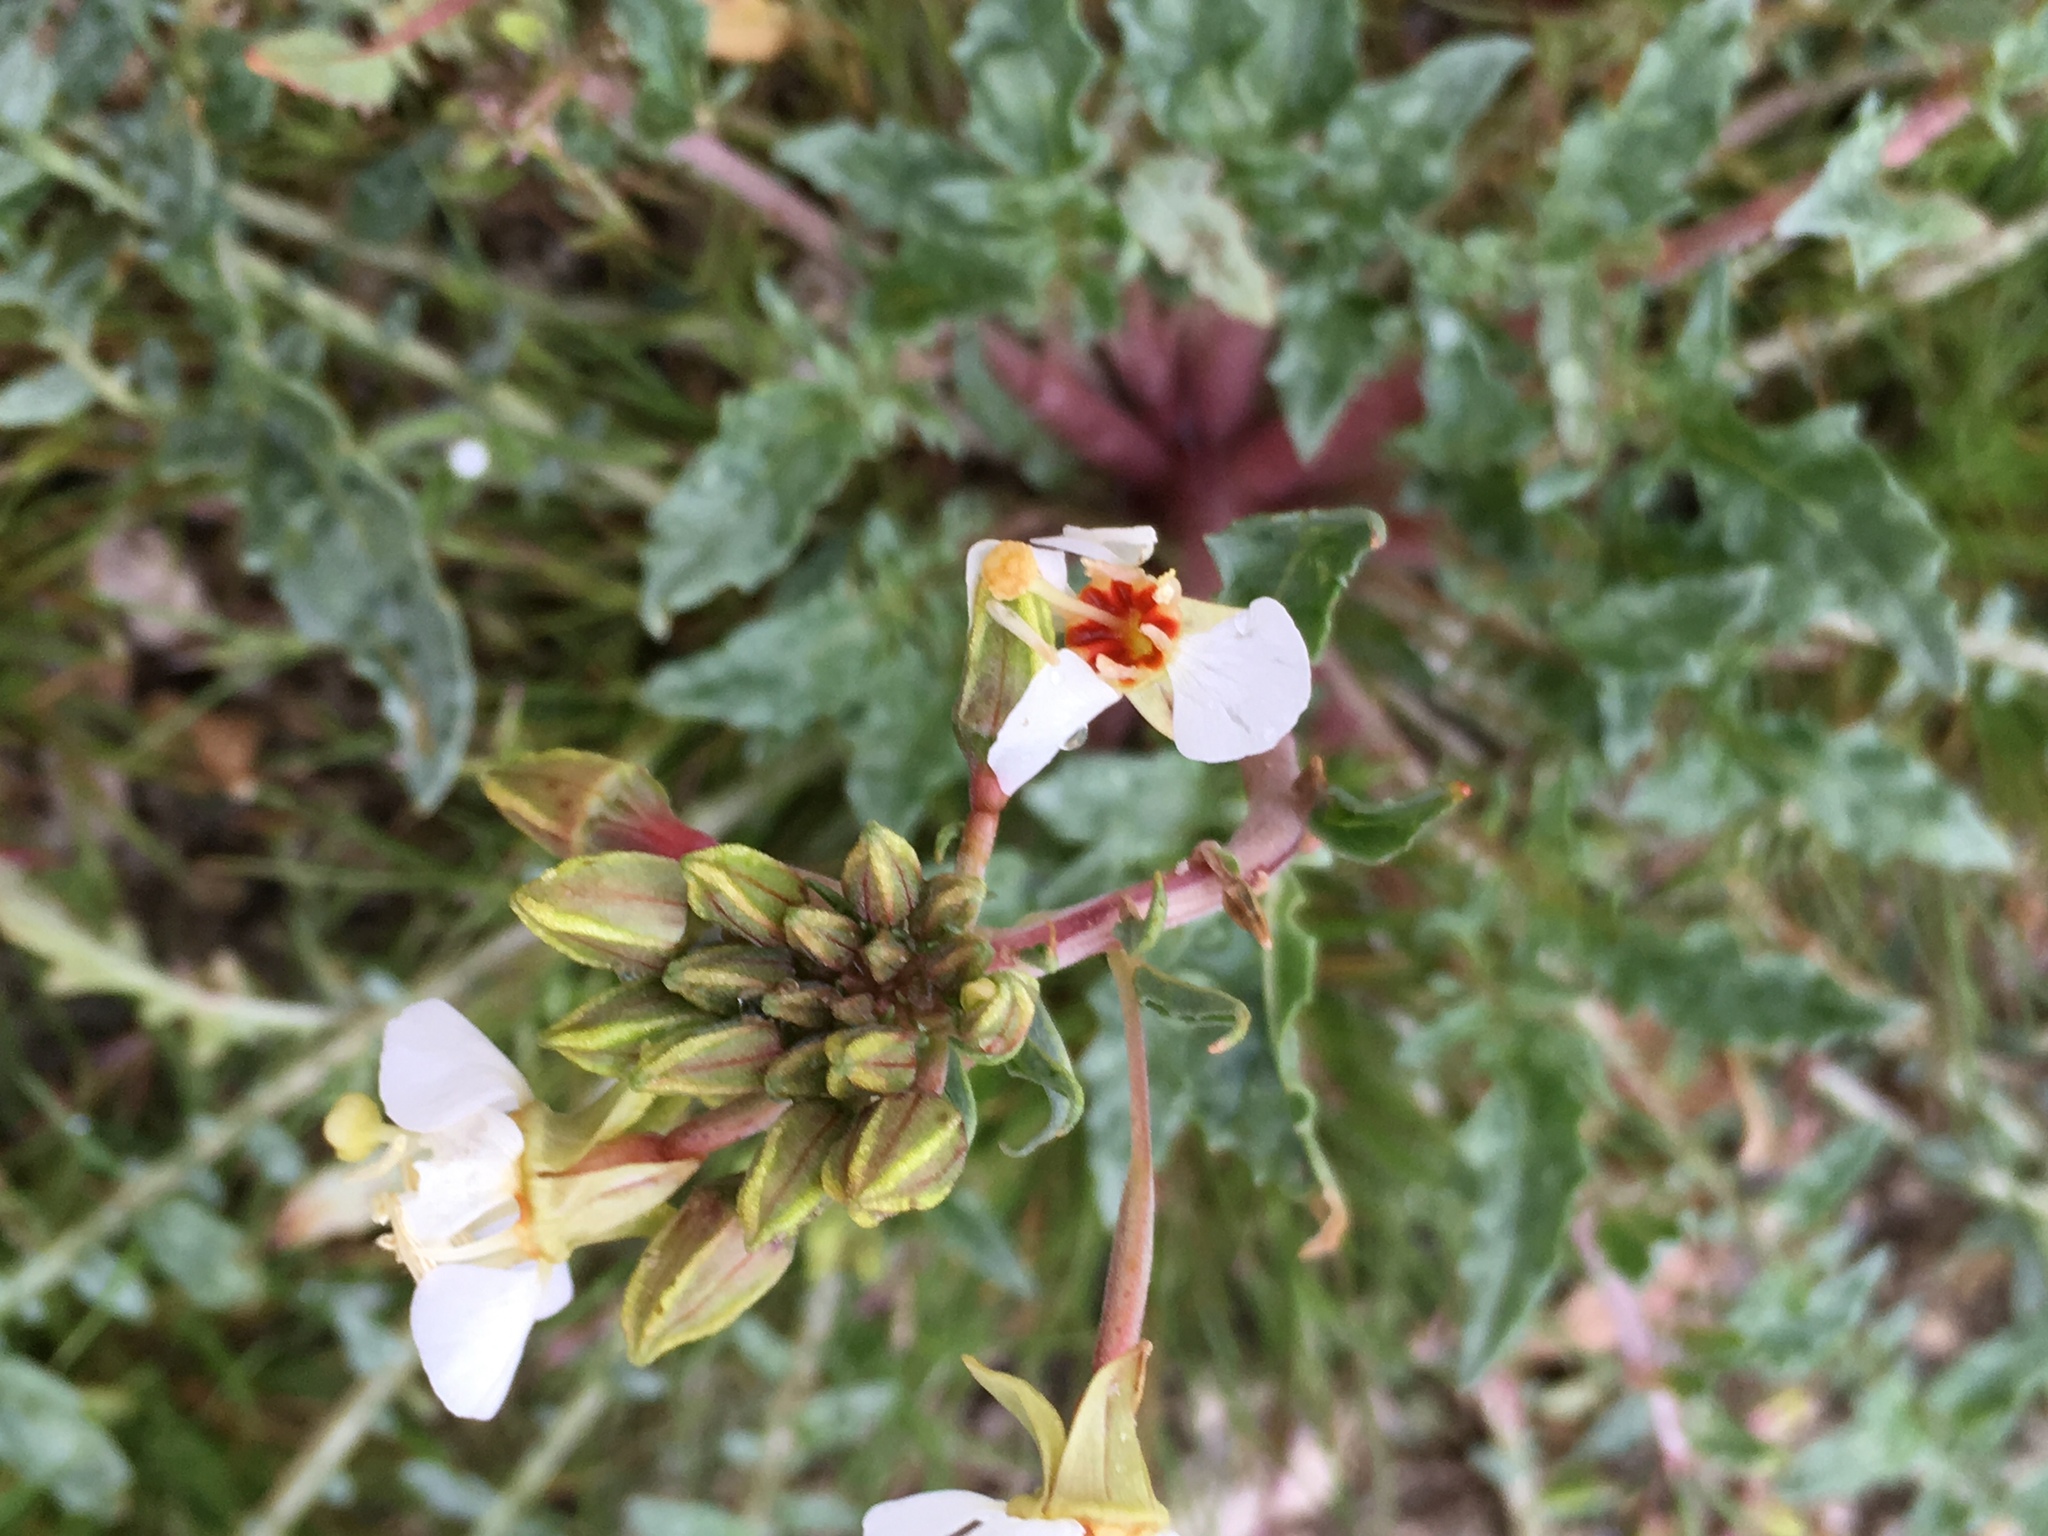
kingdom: Plantae
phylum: Tracheophyta
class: Magnoliopsida
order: Myrtales
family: Onagraceae
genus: Chylismia
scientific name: Chylismia claviformis
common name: Browneyes
